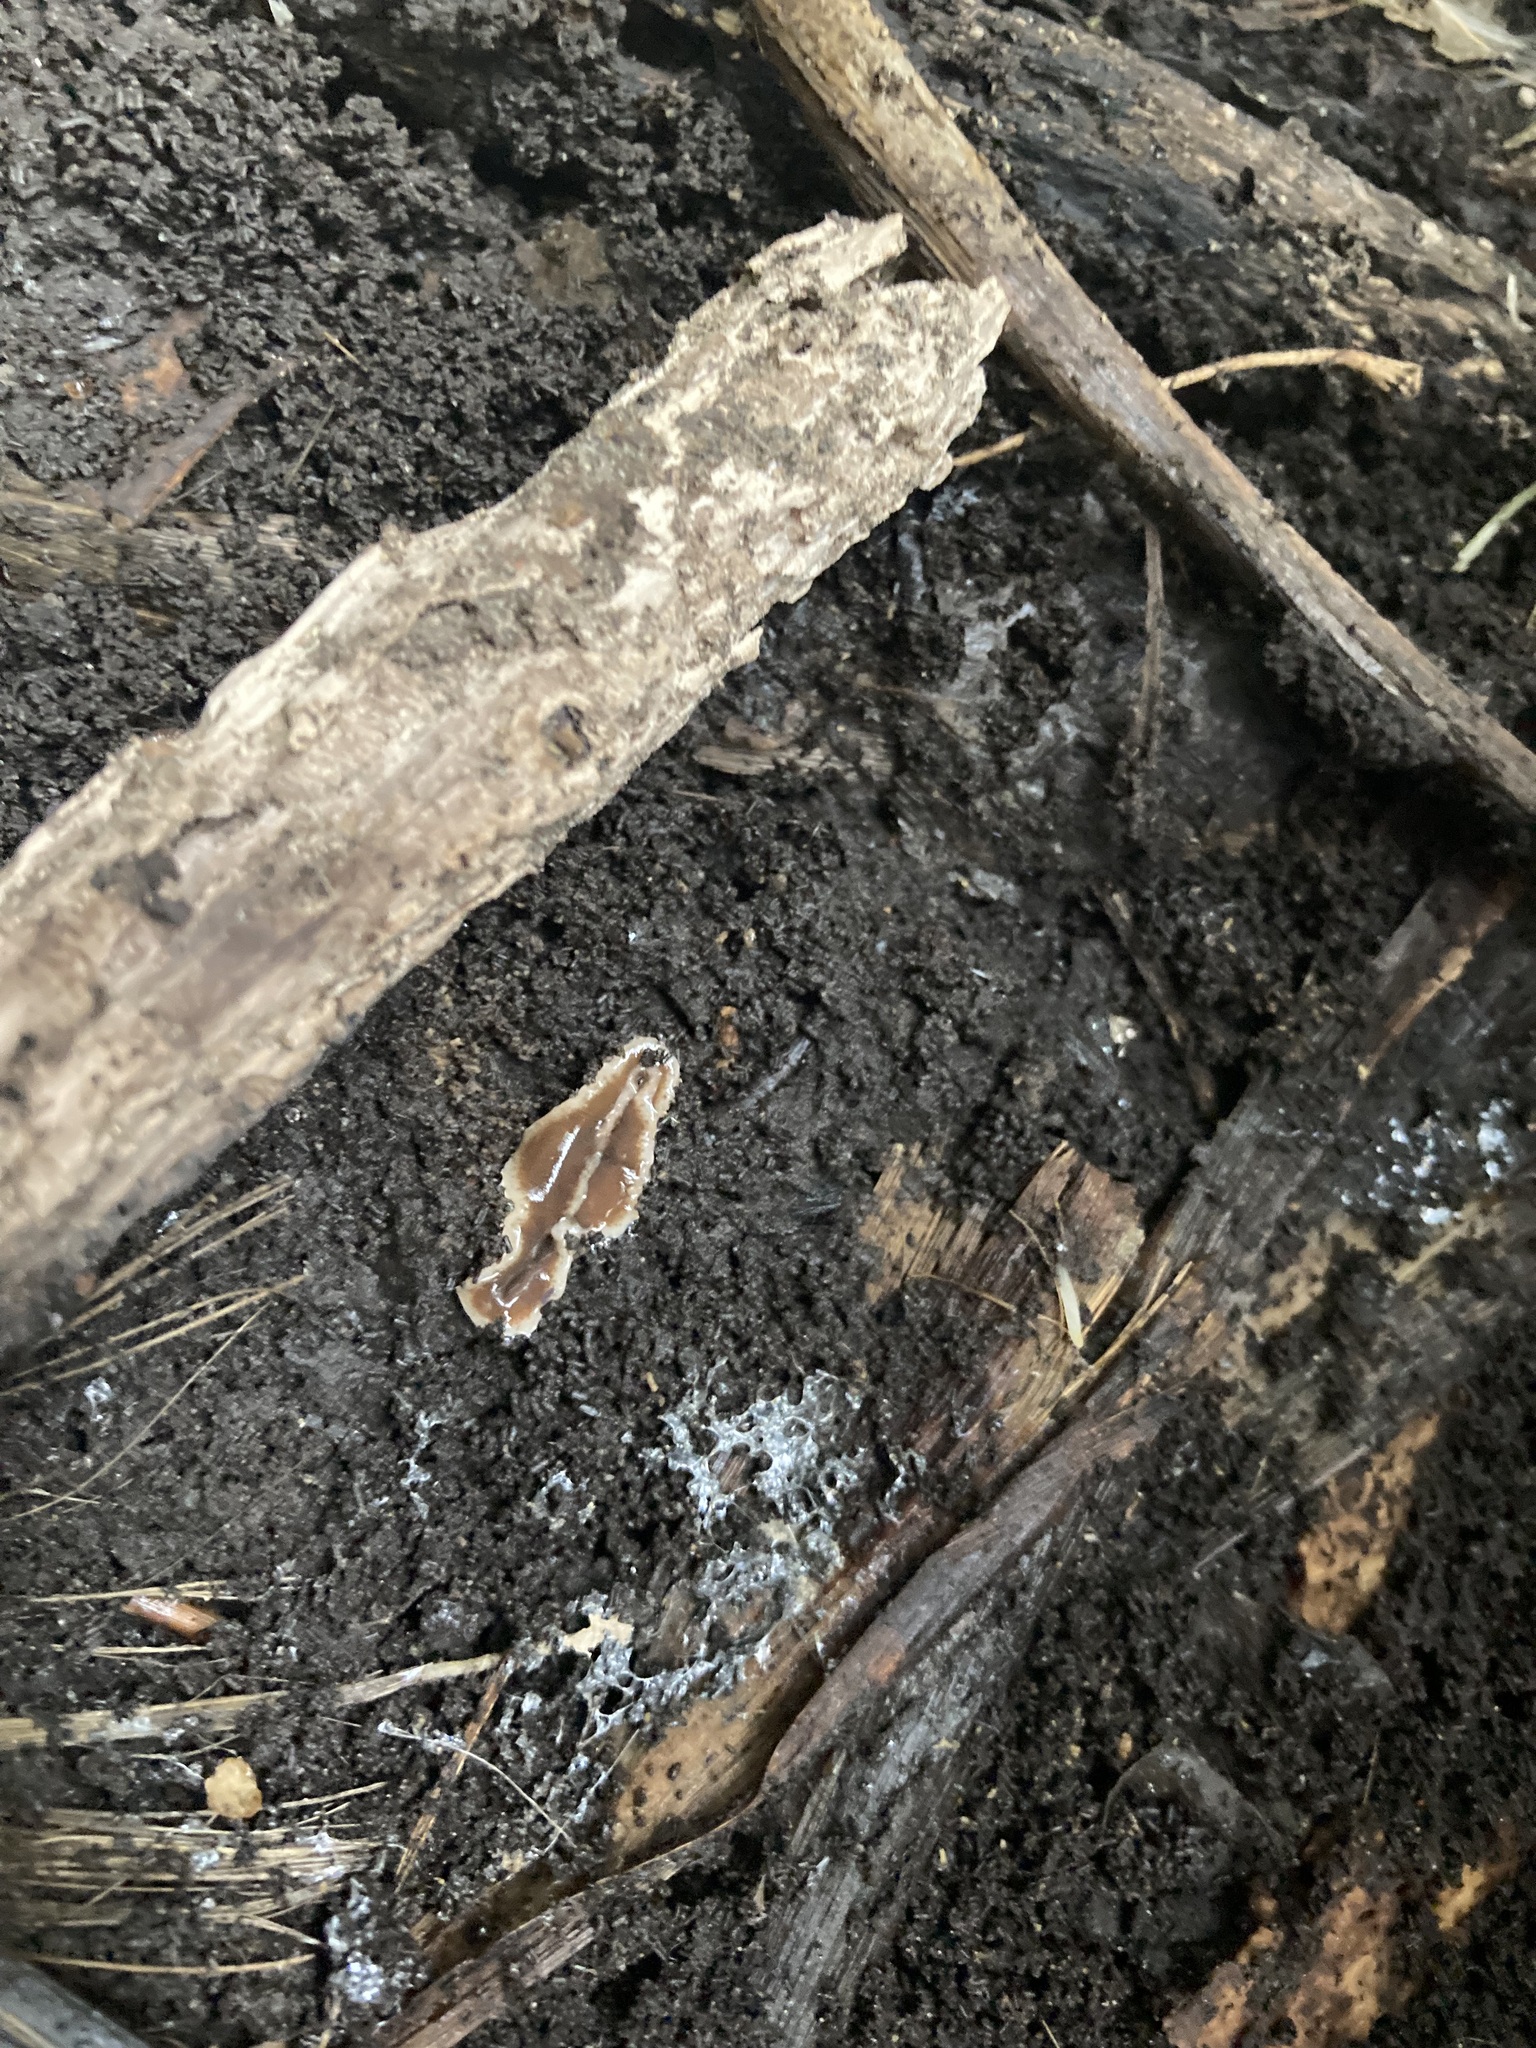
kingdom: Animalia
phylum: Platyhelminthes
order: Tricladida
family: Geoplanidae
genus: Arthurdendyus
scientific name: Arthurdendyus triangulatus
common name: New zealand flatworm
